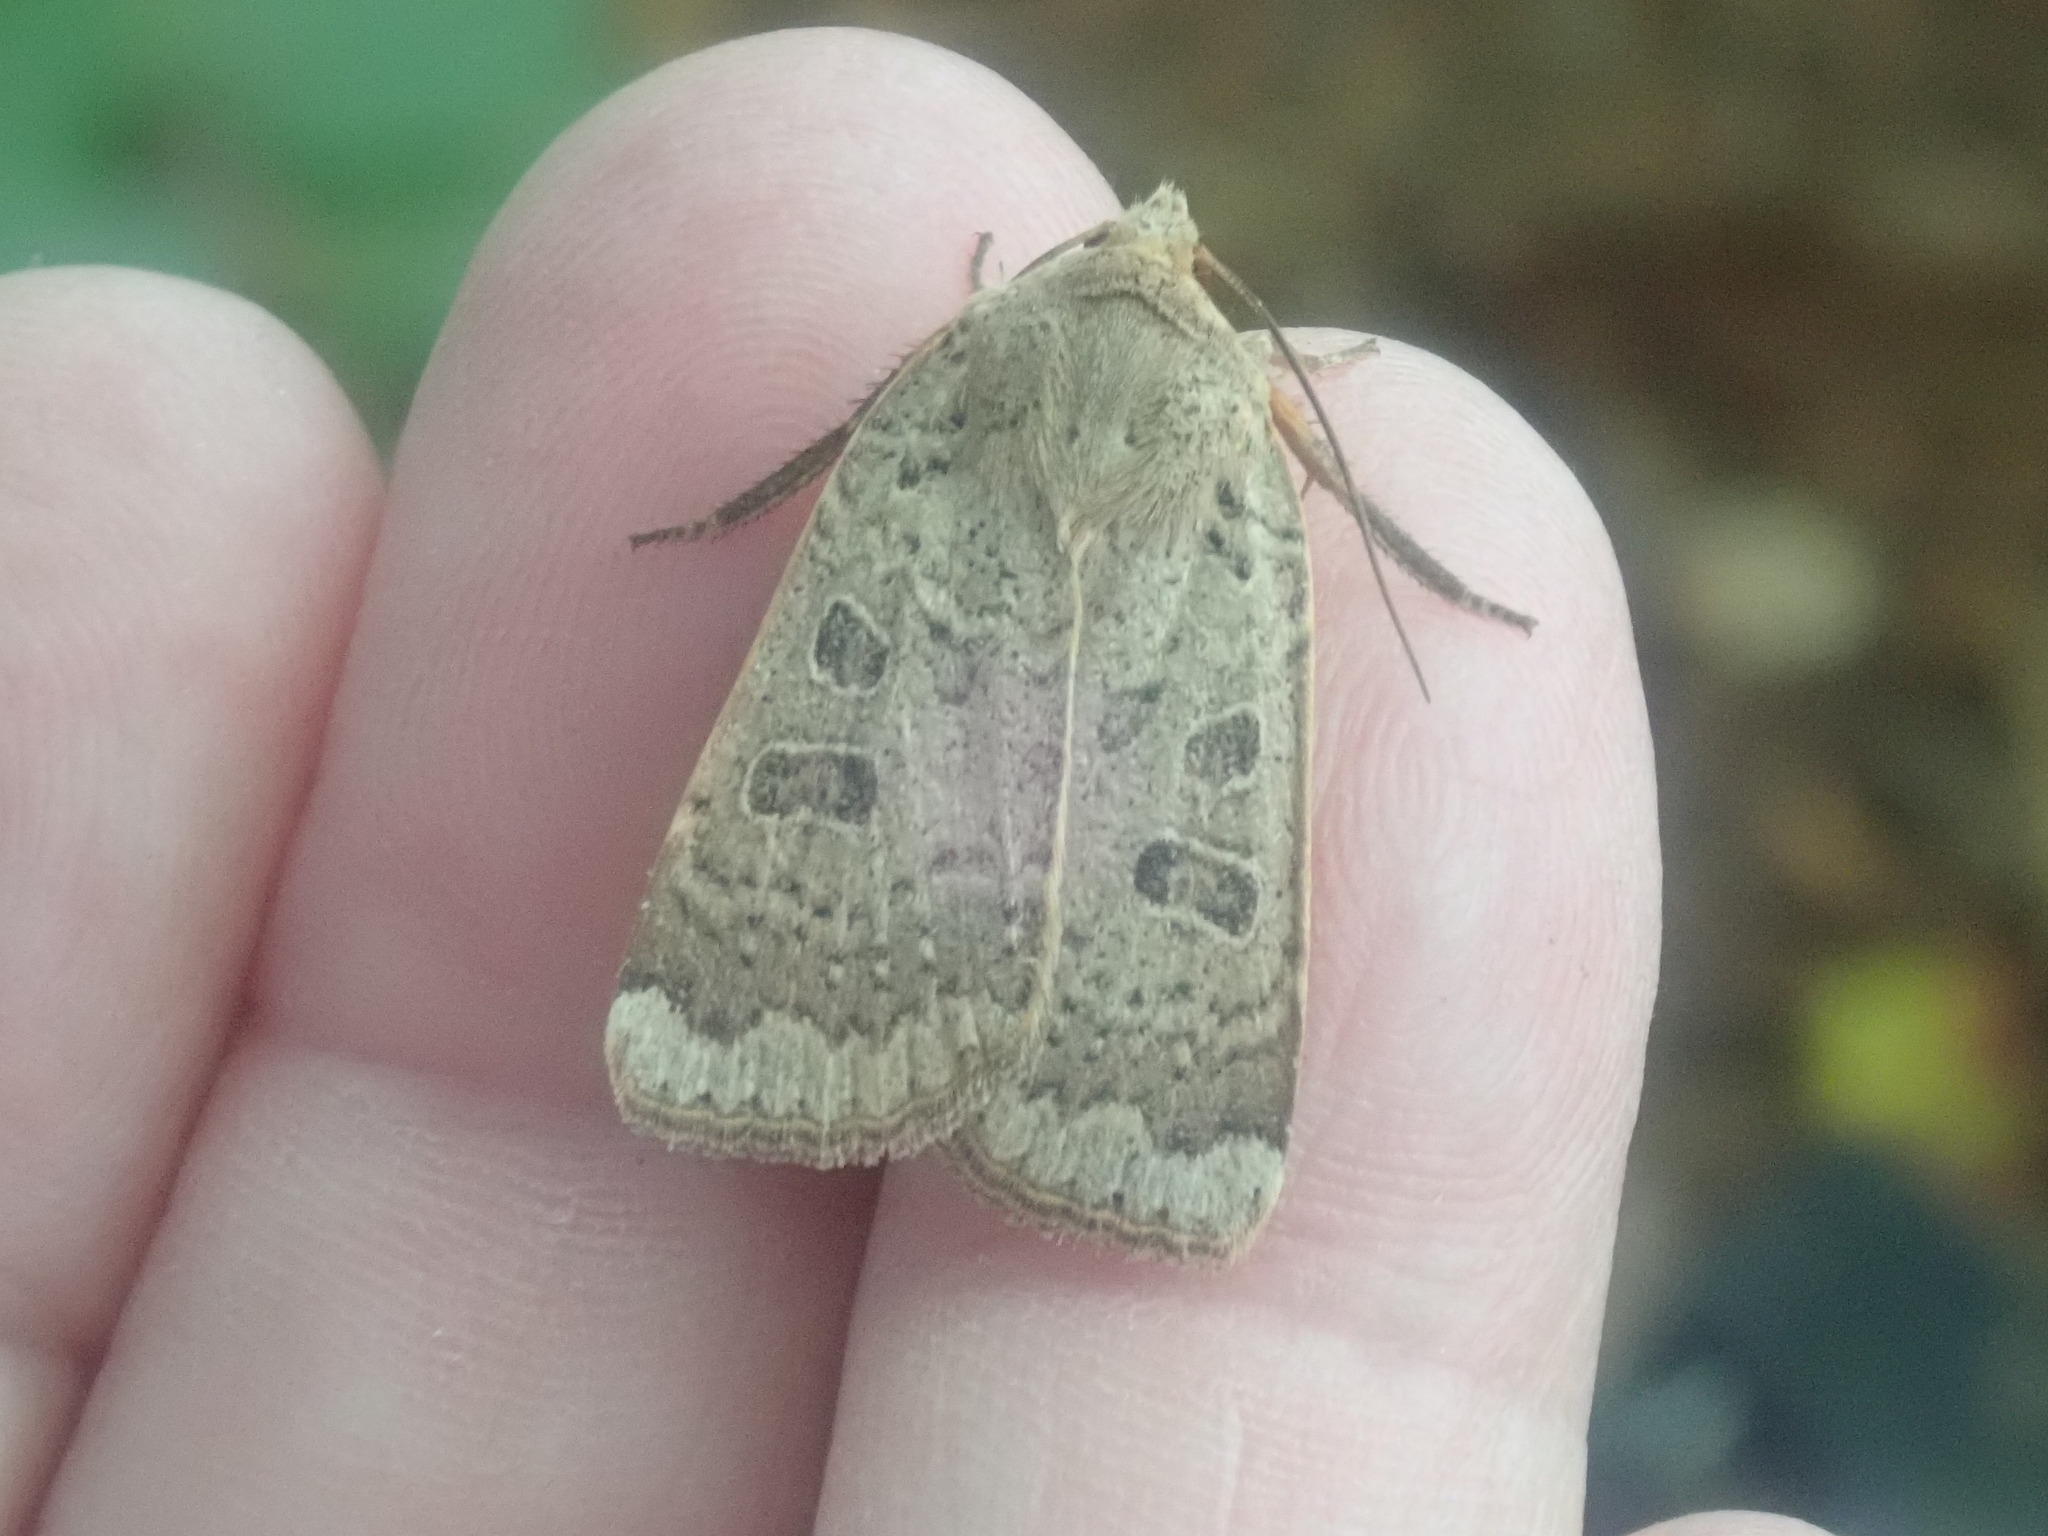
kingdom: Animalia
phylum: Arthropoda
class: Insecta
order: Lepidoptera
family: Noctuidae
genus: Abagrotis
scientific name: Abagrotis alternata
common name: Greater red dart
